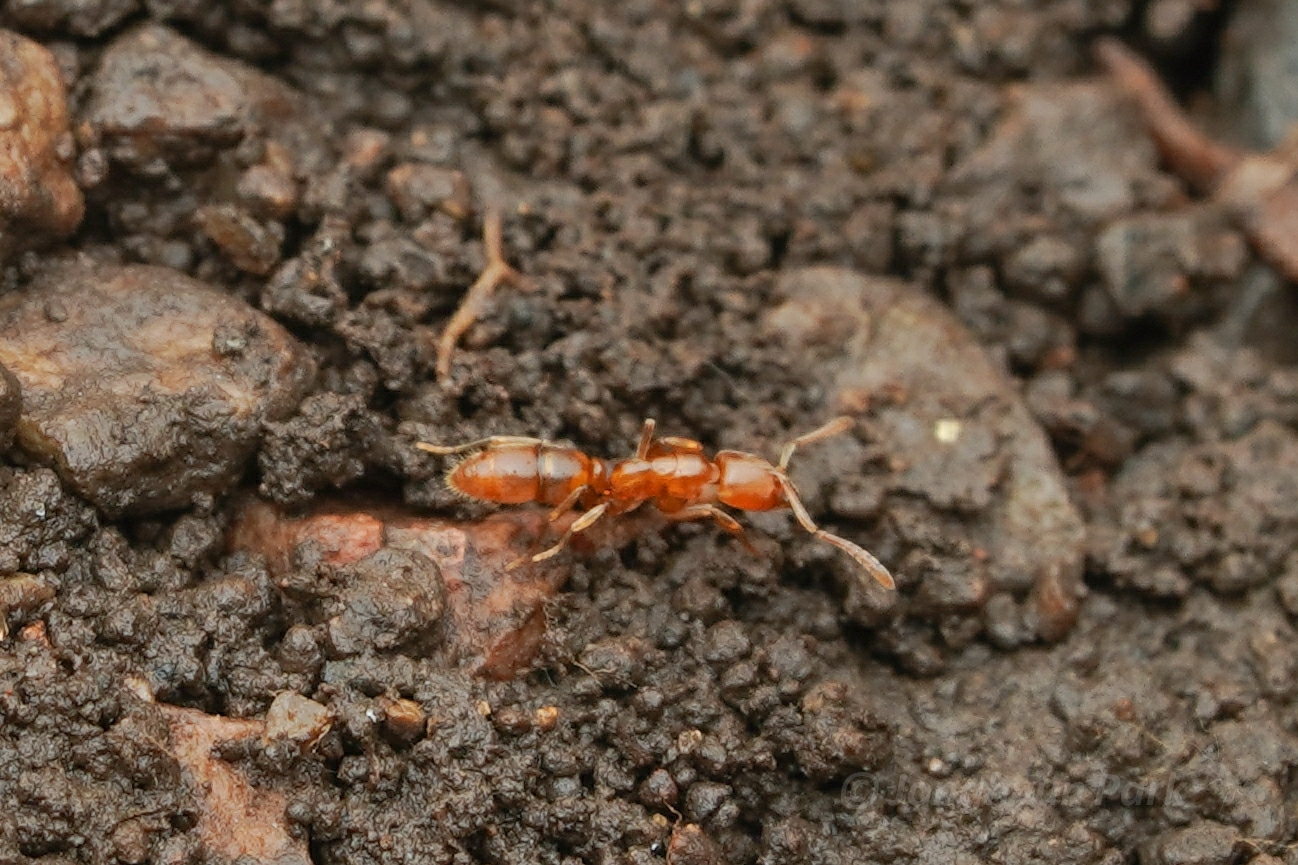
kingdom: Animalia
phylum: Arthropoda
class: Insecta
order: Hymenoptera
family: Formicidae
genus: Hypoponera
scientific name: Hypoponera sauteri
